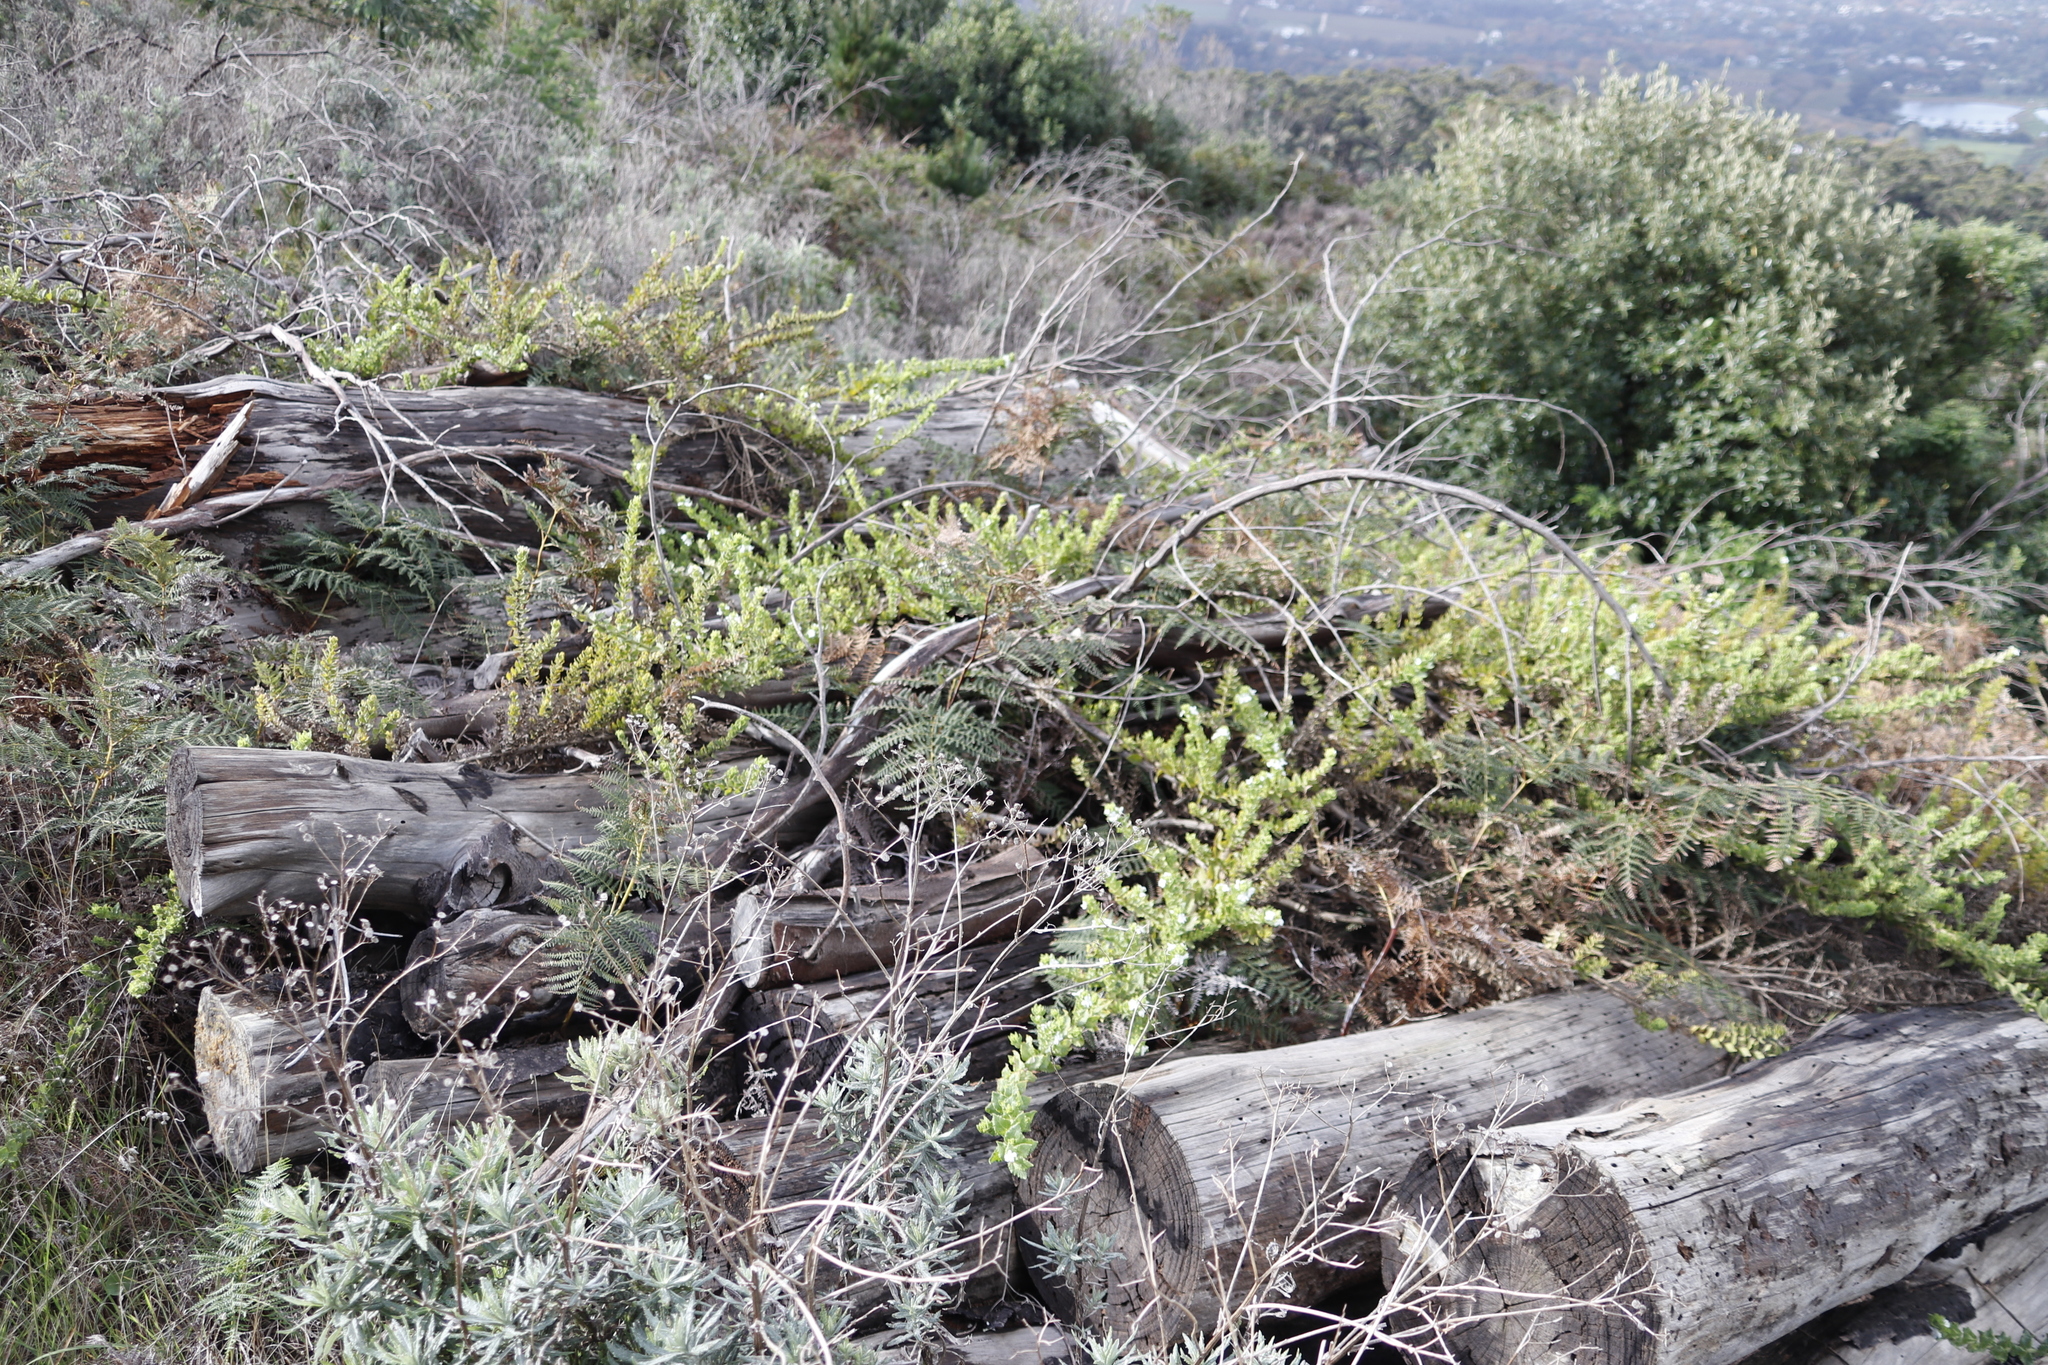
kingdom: Plantae
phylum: Tracheophyta
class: Magnoliopsida
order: Lamiales
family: Scrophulariaceae
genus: Oftia
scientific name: Oftia africana
